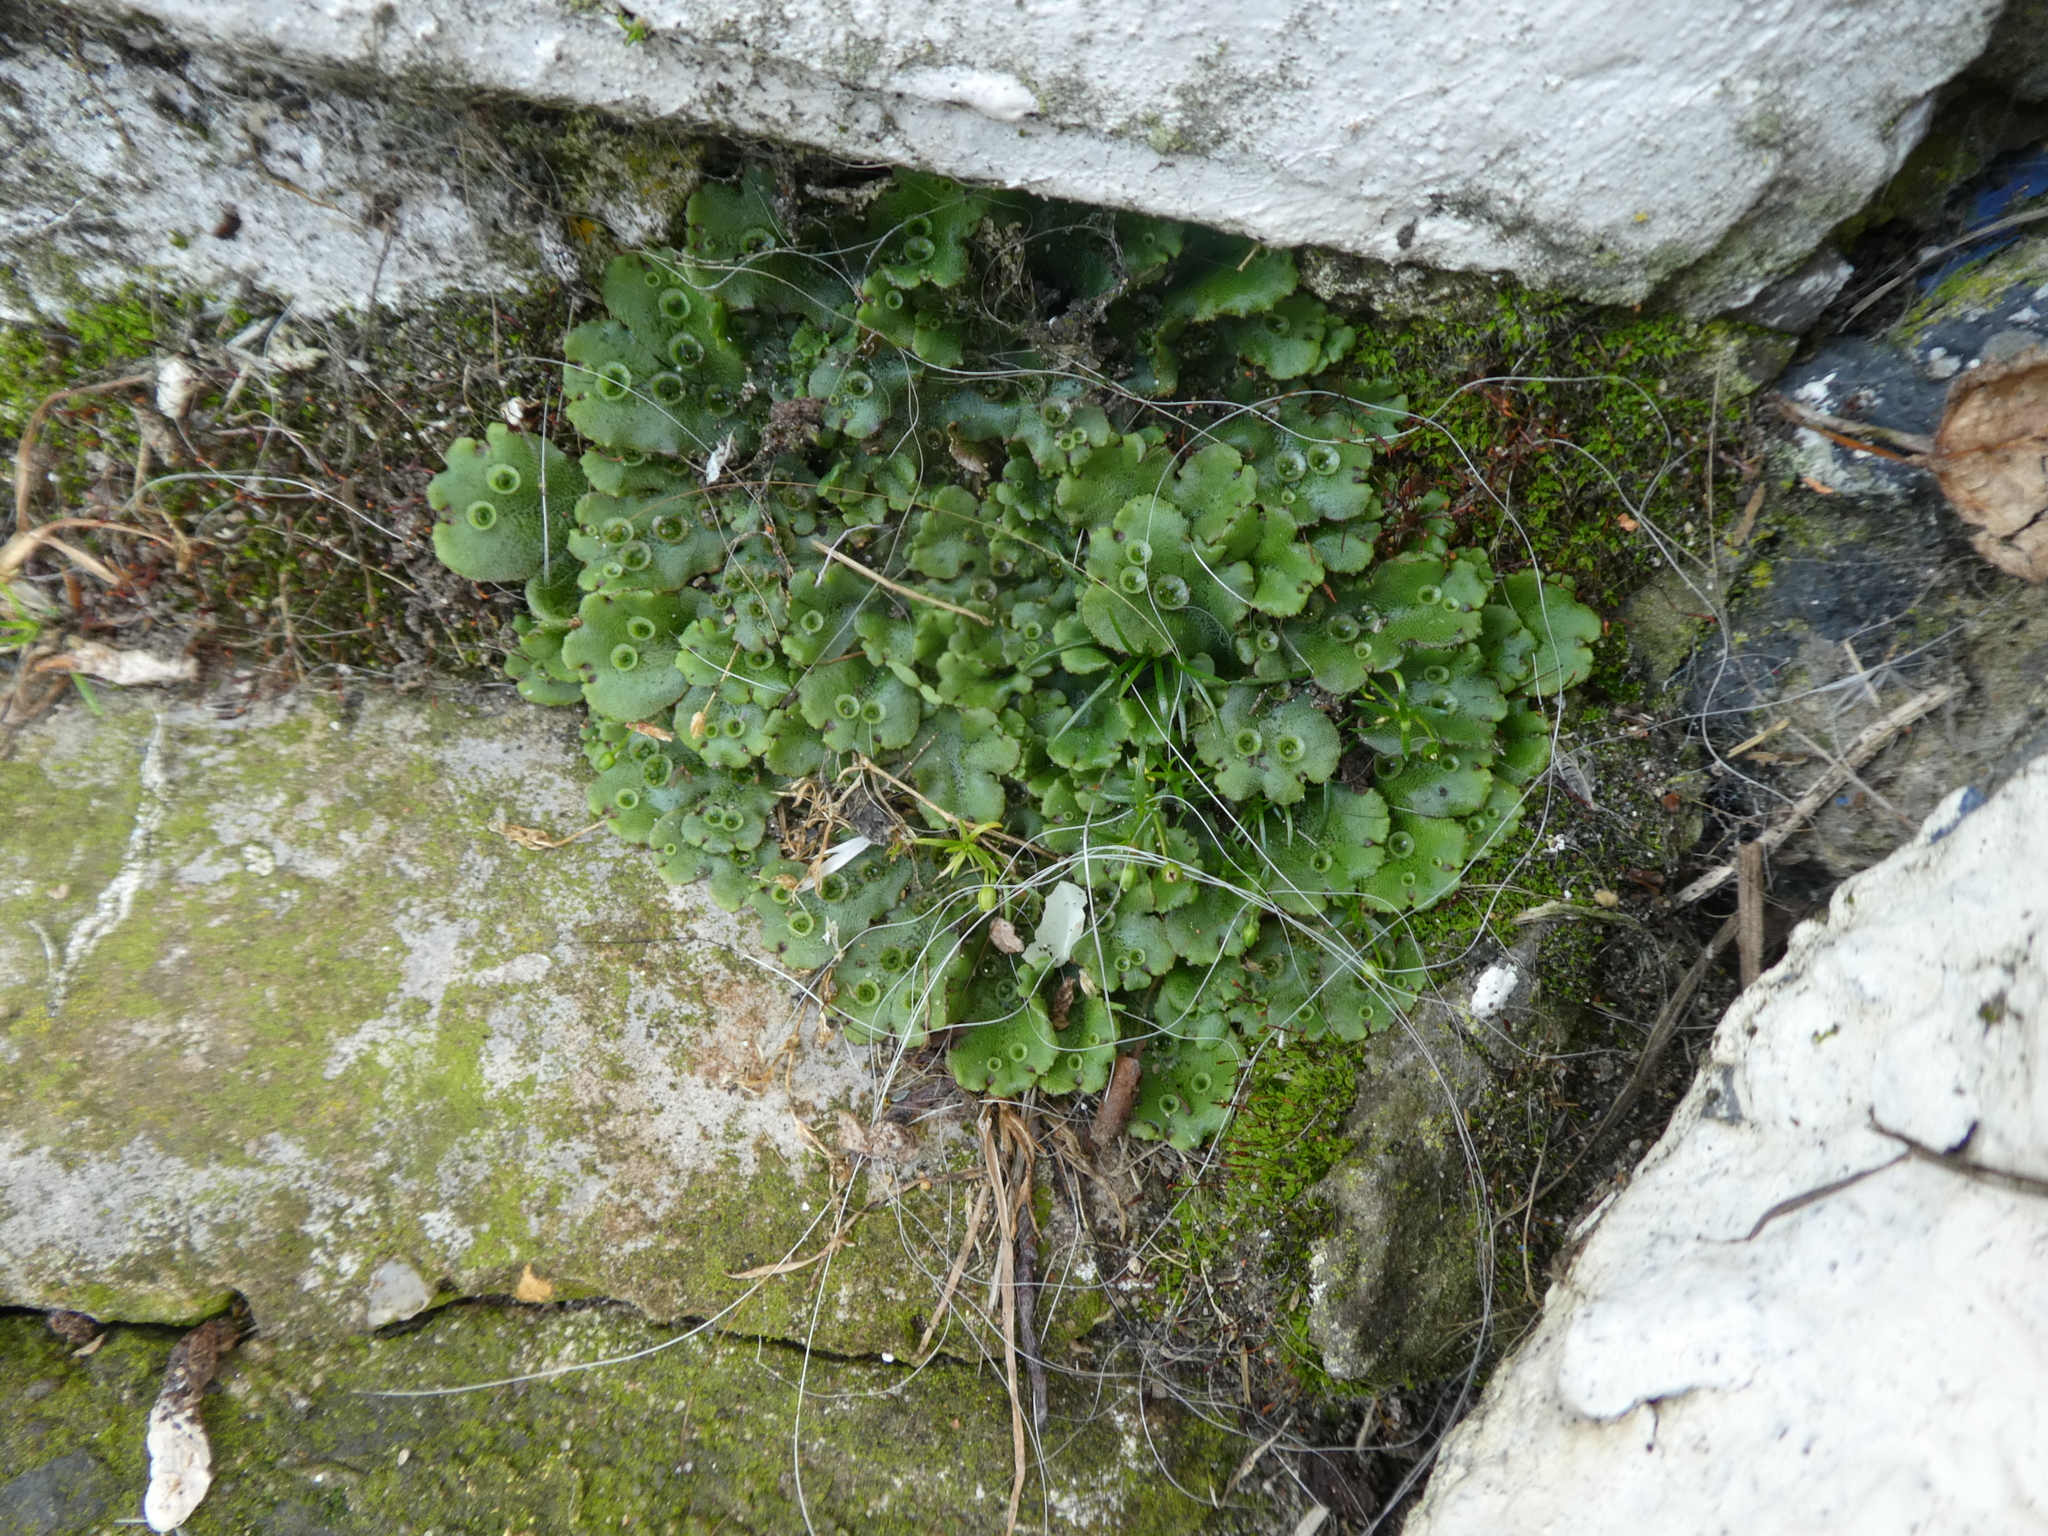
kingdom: Plantae
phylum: Marchantiophyta
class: Marchantiopsida
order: Marchantiales
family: Marchantiaceae
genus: Marchantia
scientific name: Marchantia polymorpha
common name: Common liverwort
